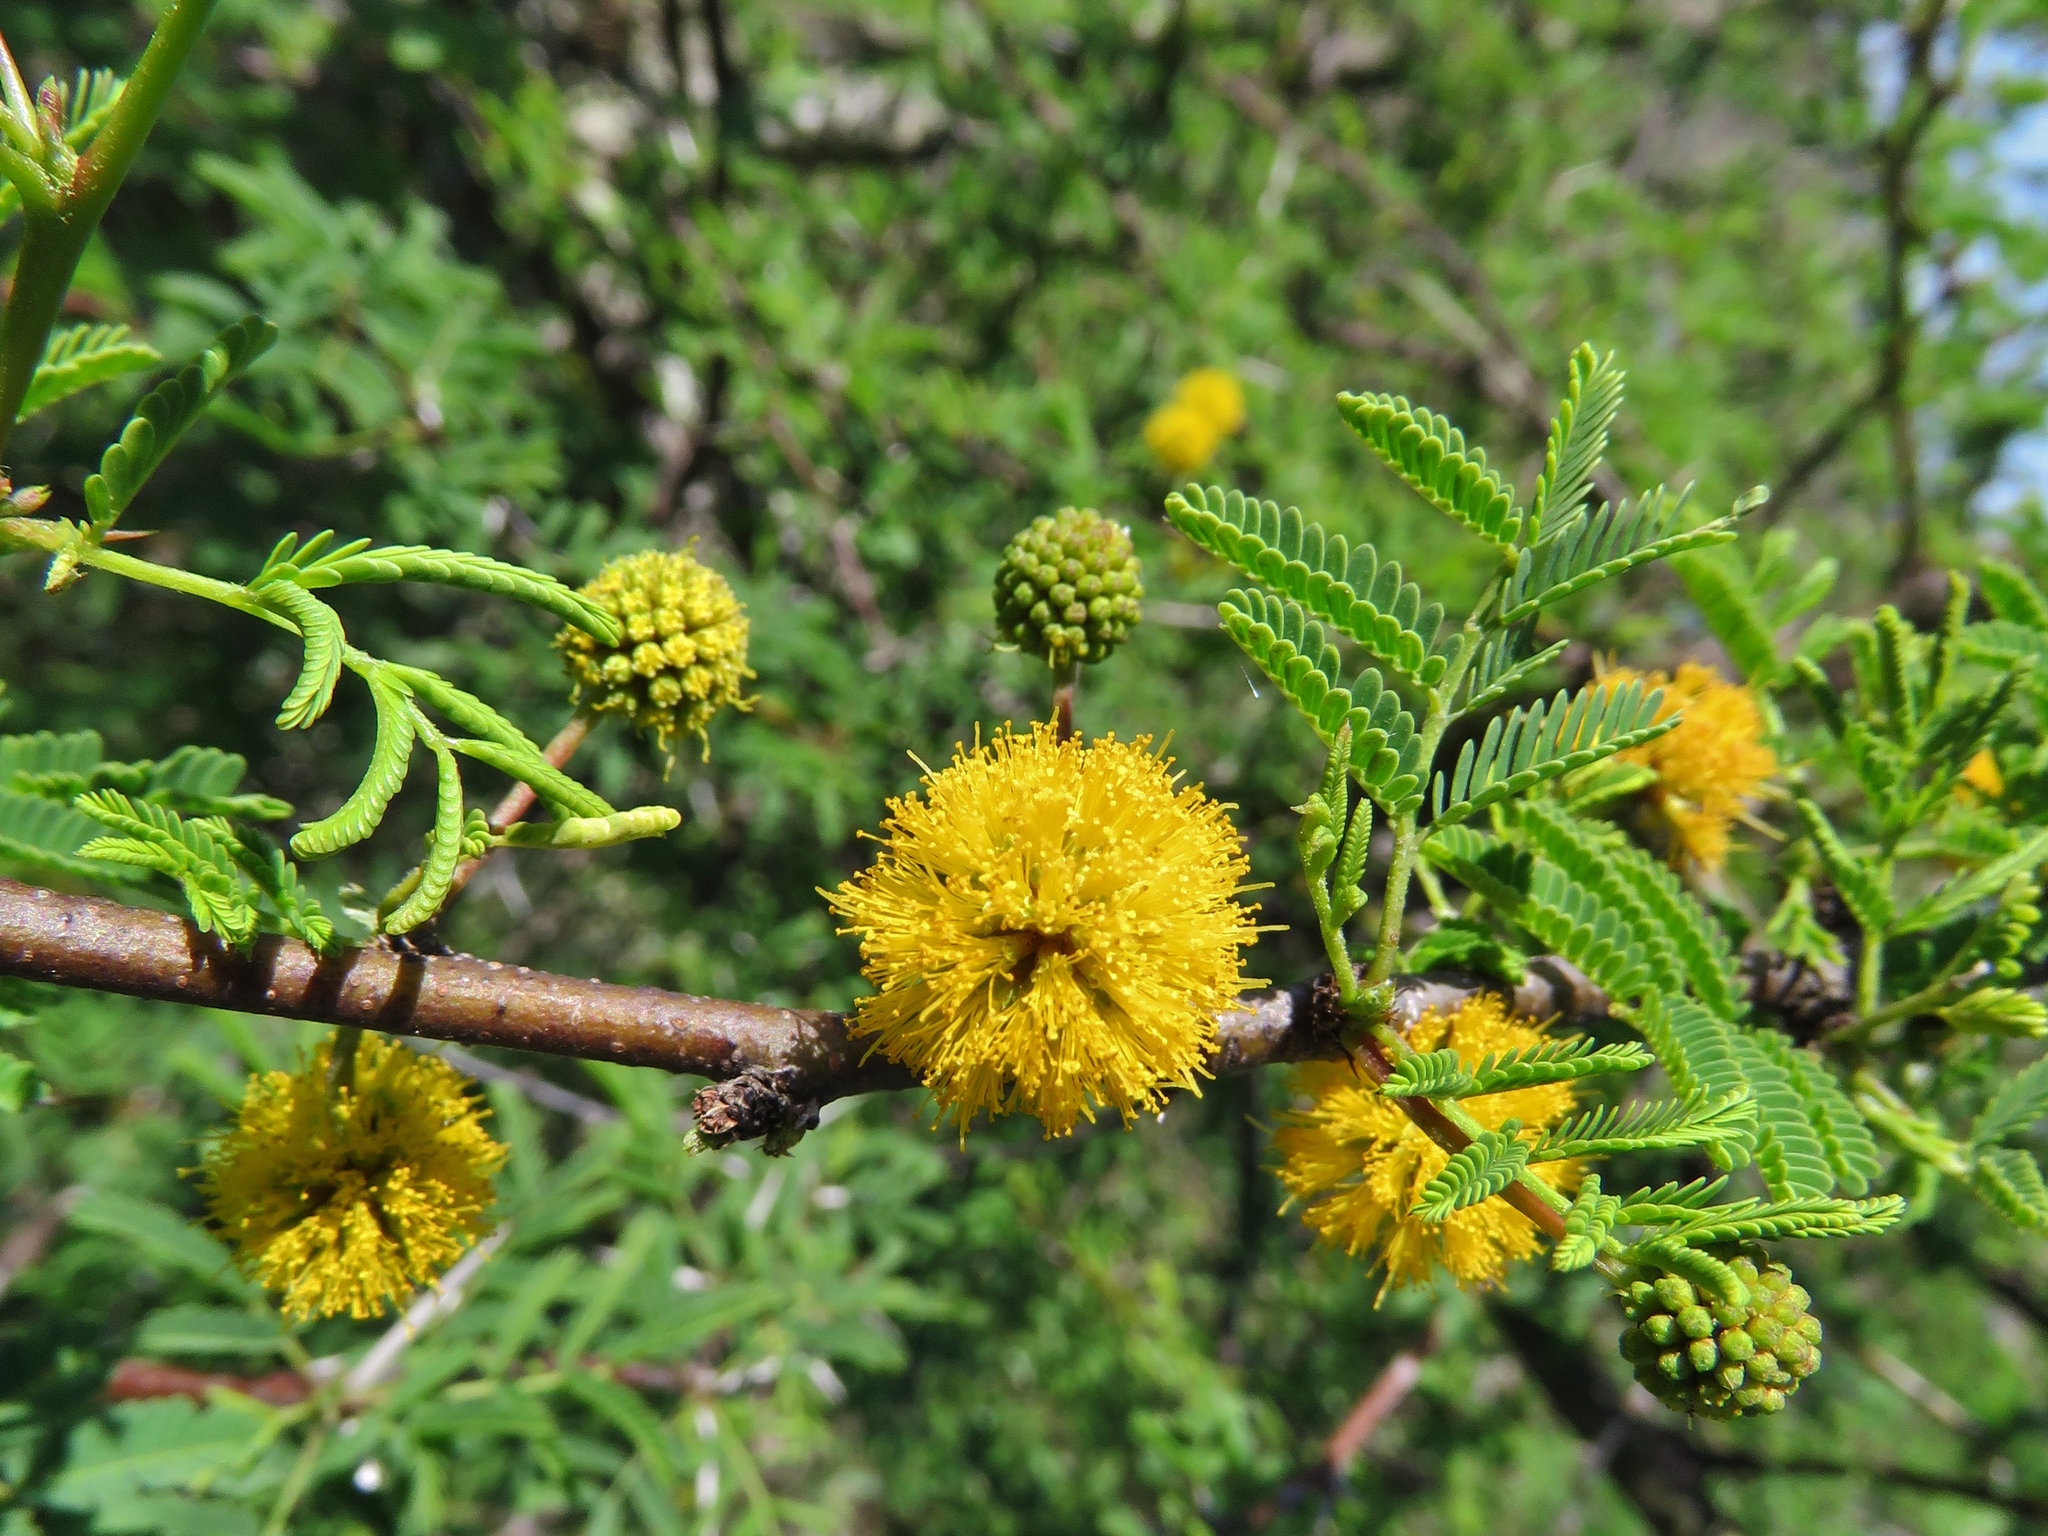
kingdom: Plantae
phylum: Tracheophyta
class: Magnoliopsida
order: Fabales
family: Fabaceae
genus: Vachellia
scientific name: Vachellia farnesiana
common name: Sweet acacia
